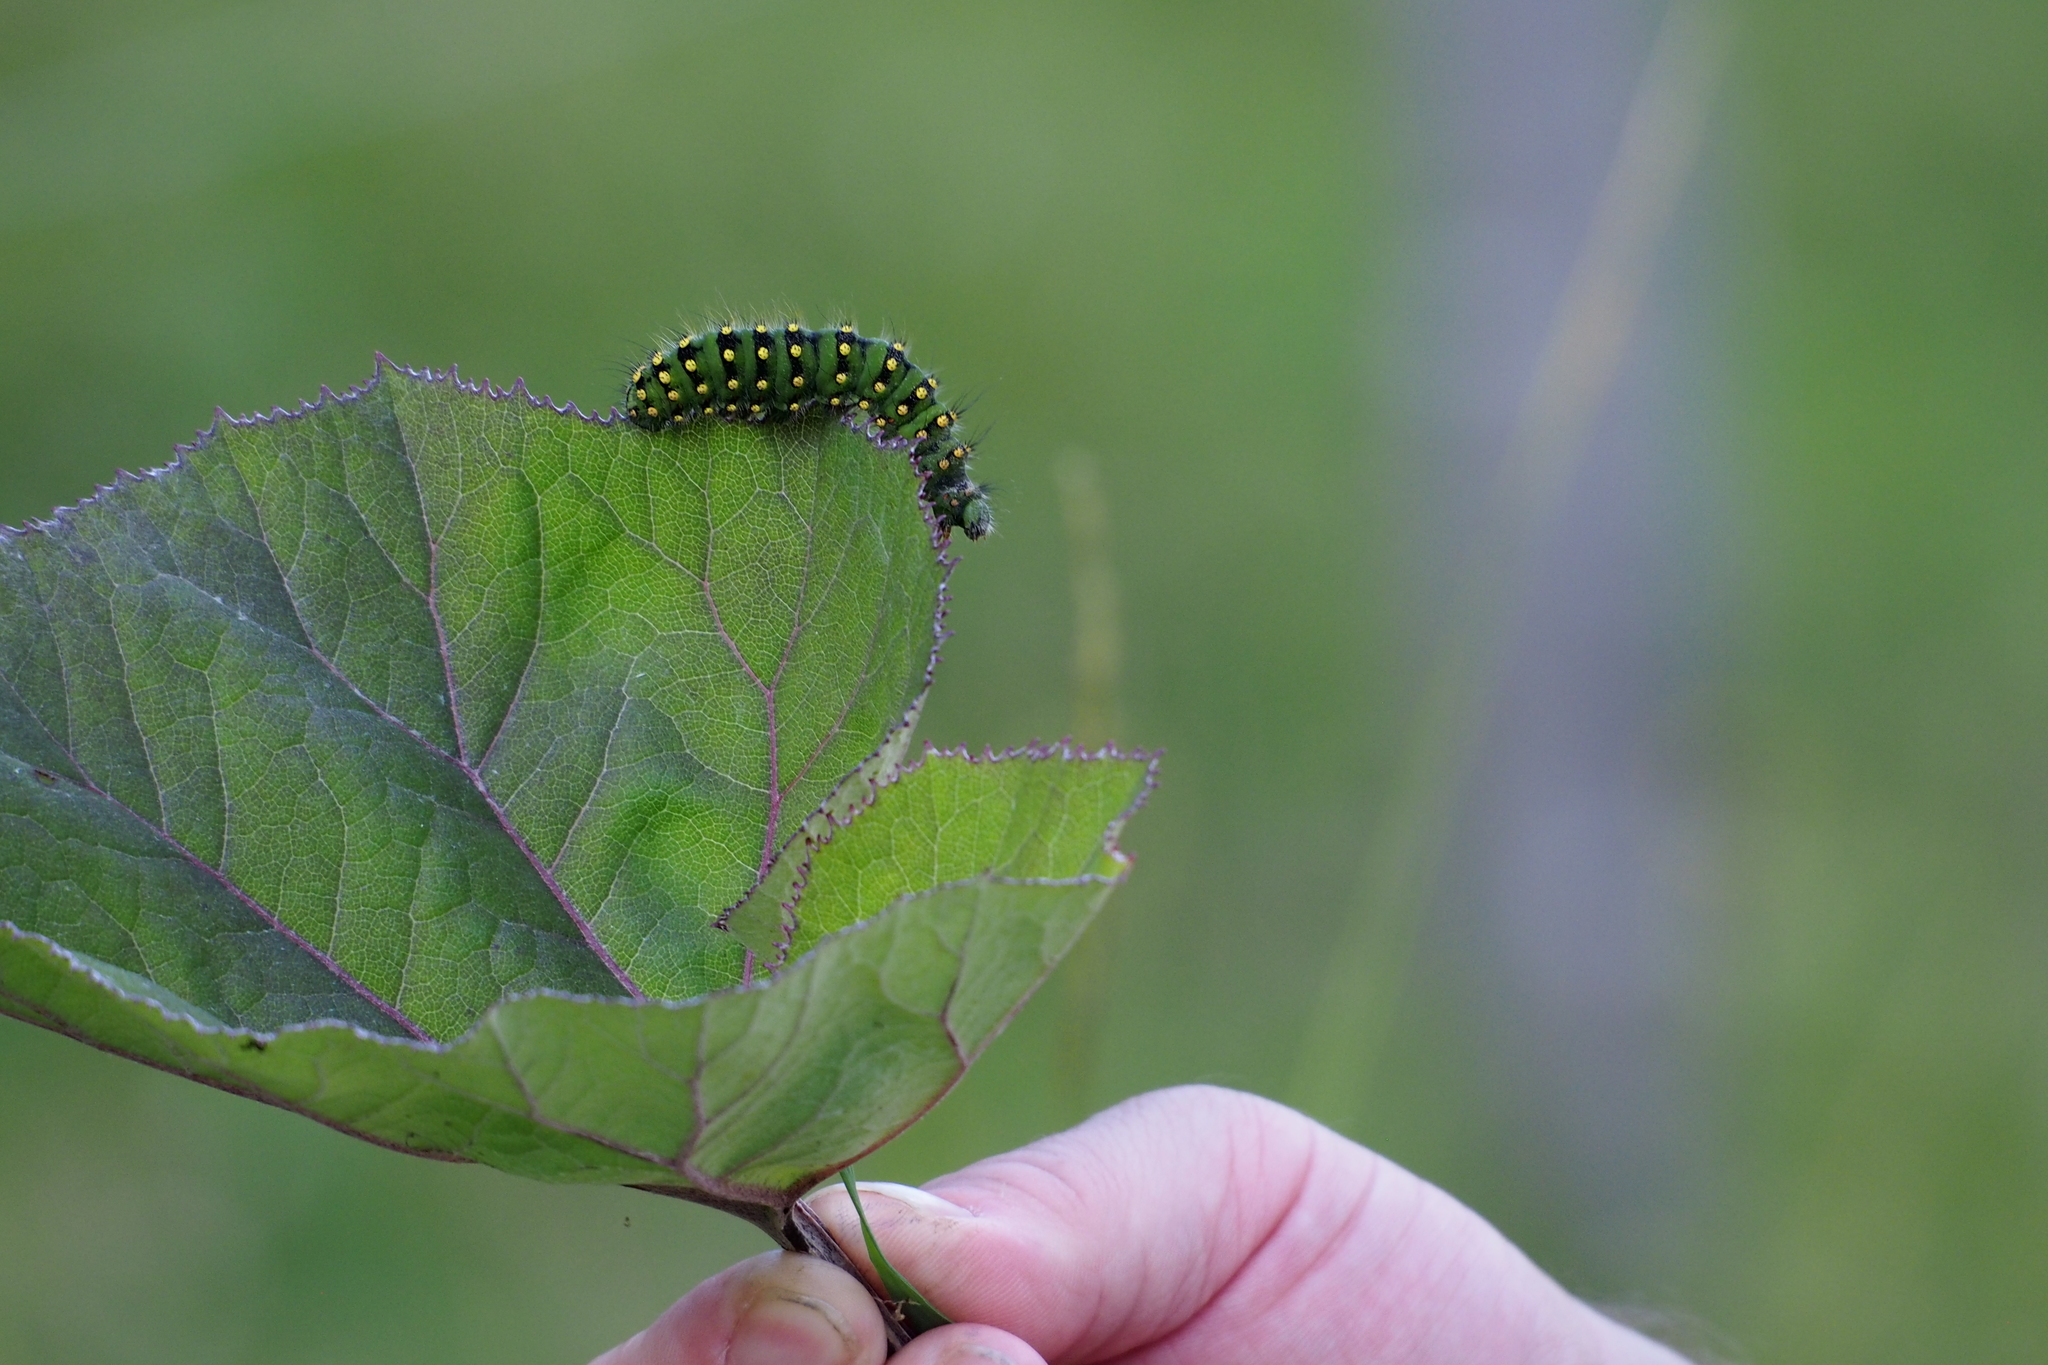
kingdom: Animalia
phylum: Arthropoda
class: Insecta
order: Lepidoptera
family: Saturniidae
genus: Saturnia
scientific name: Saturnia pavonia
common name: Emperor moth
